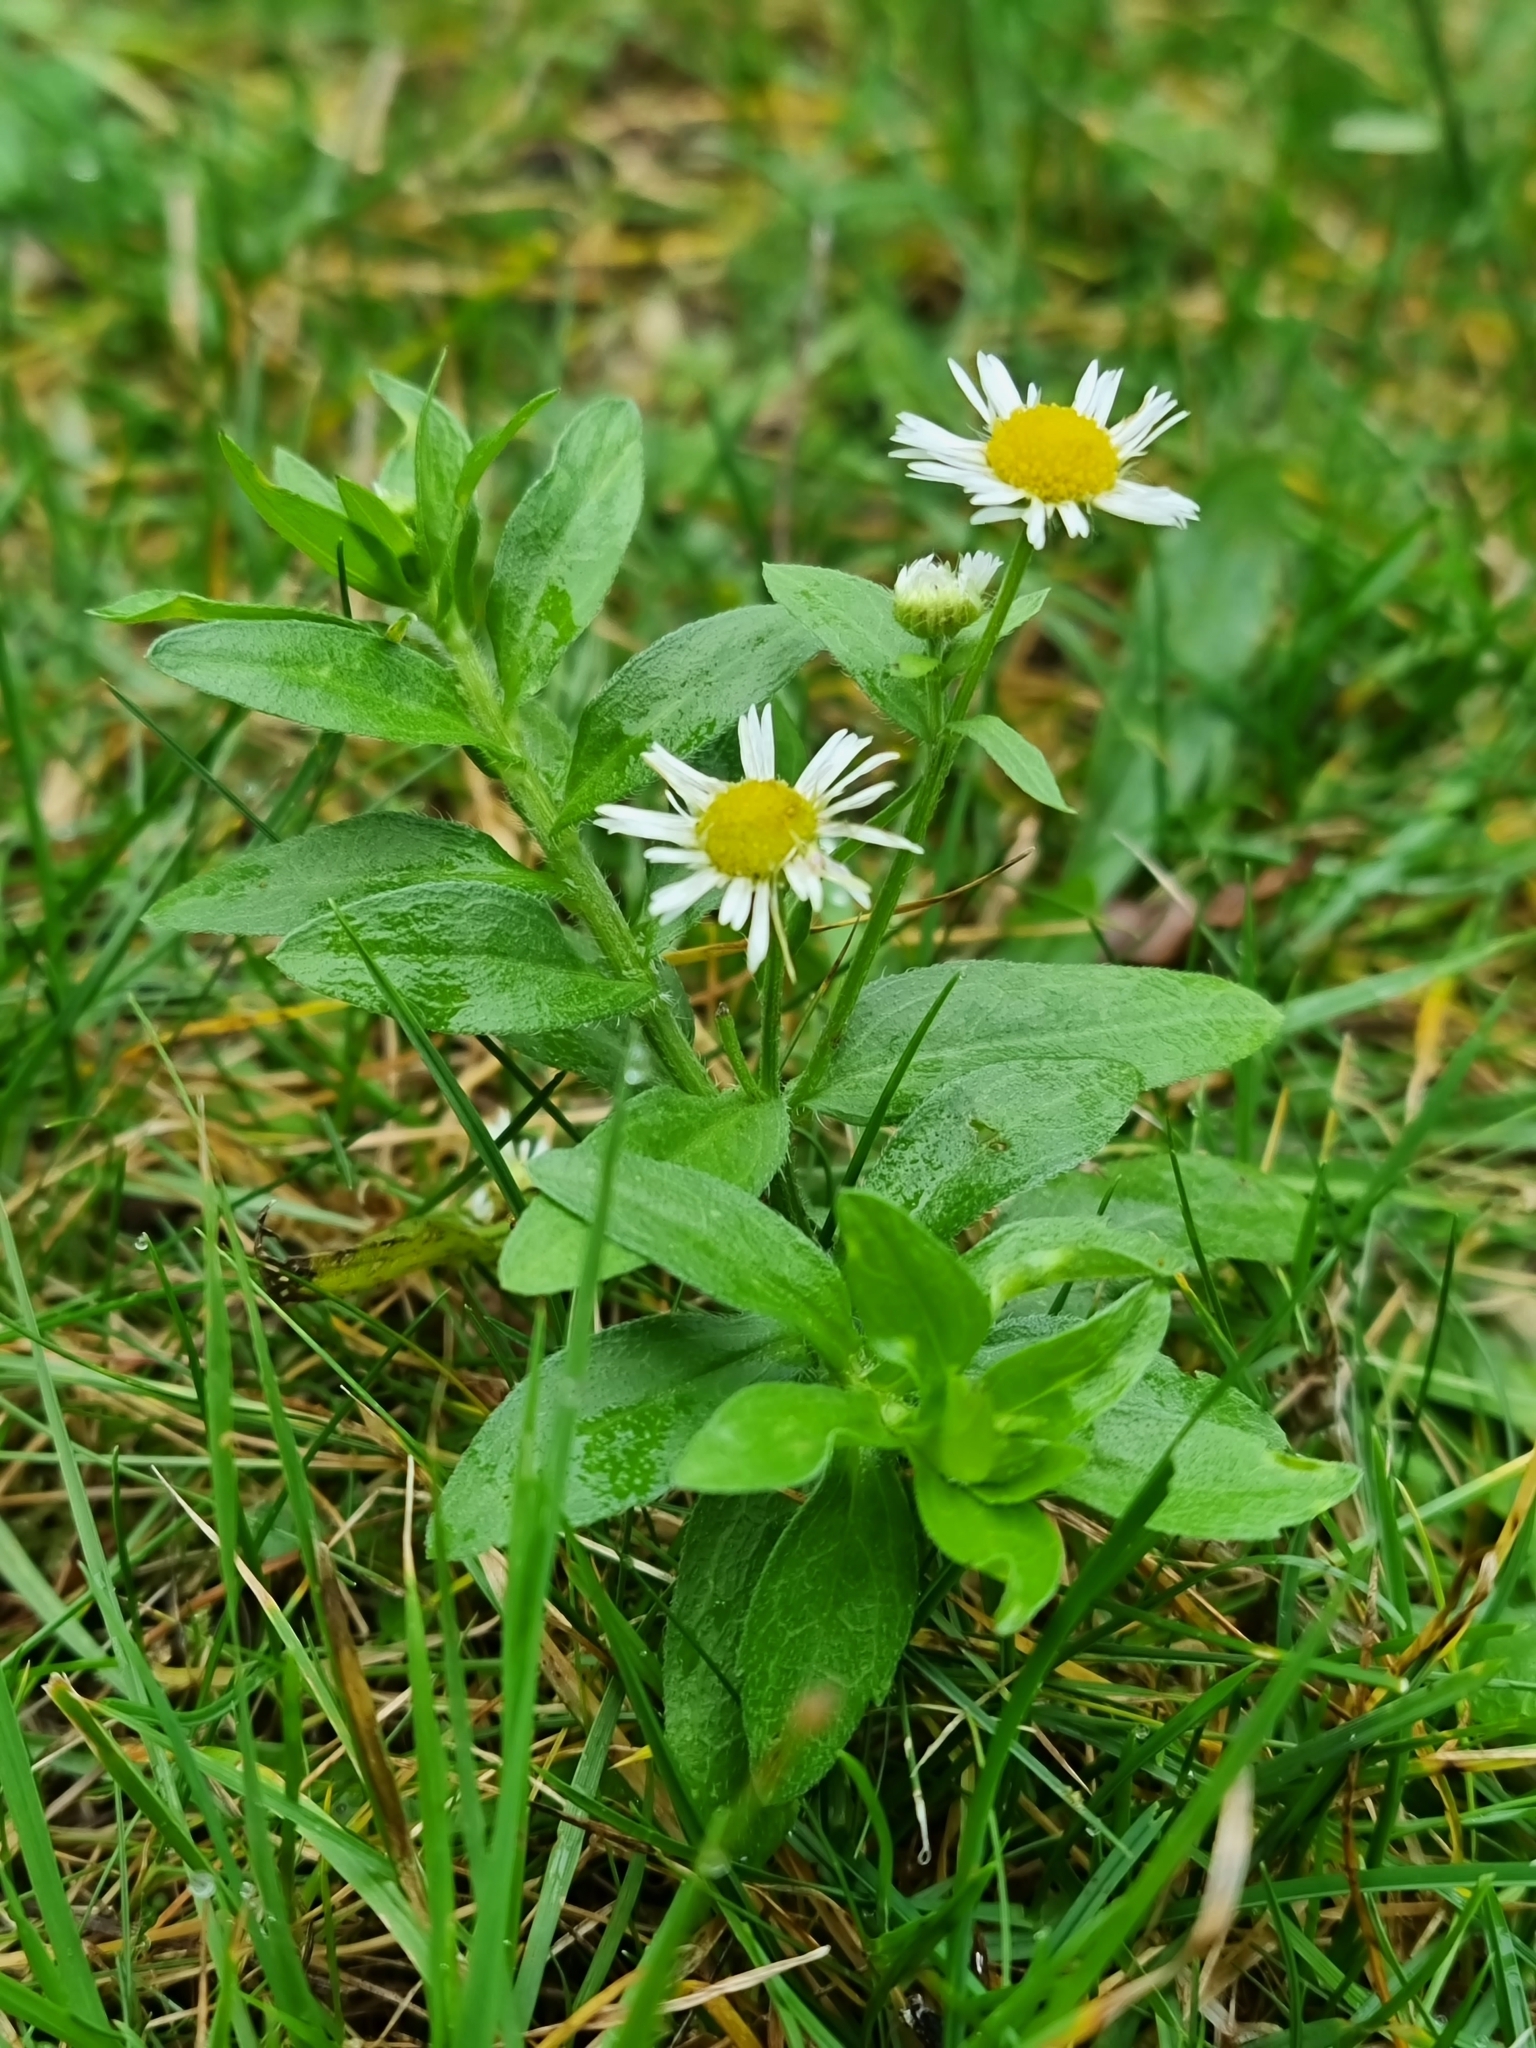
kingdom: Plantae
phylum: Tracheophyta
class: Magnoliopsida
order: Asterales
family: Asteraceae
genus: Erigeron
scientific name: Erigeron annuus
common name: Tall fleabane
